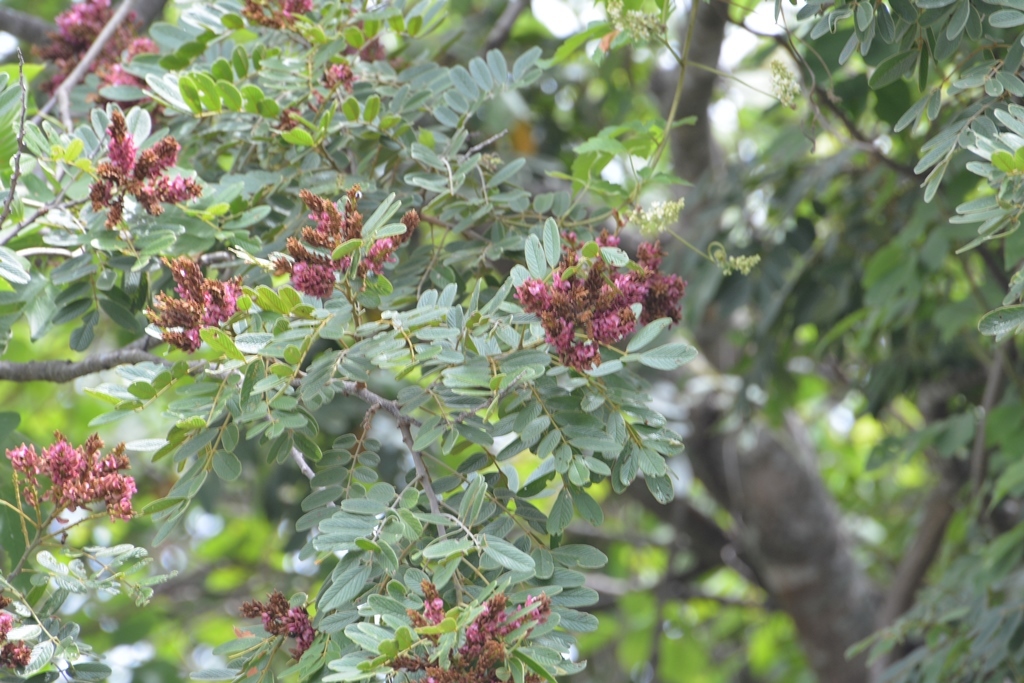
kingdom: Plantae
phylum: Tracheophyta
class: Magnoliopsida
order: Fabales
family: Fabaceae
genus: Lonchocarpus
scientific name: Lonchocarpus rugosus
